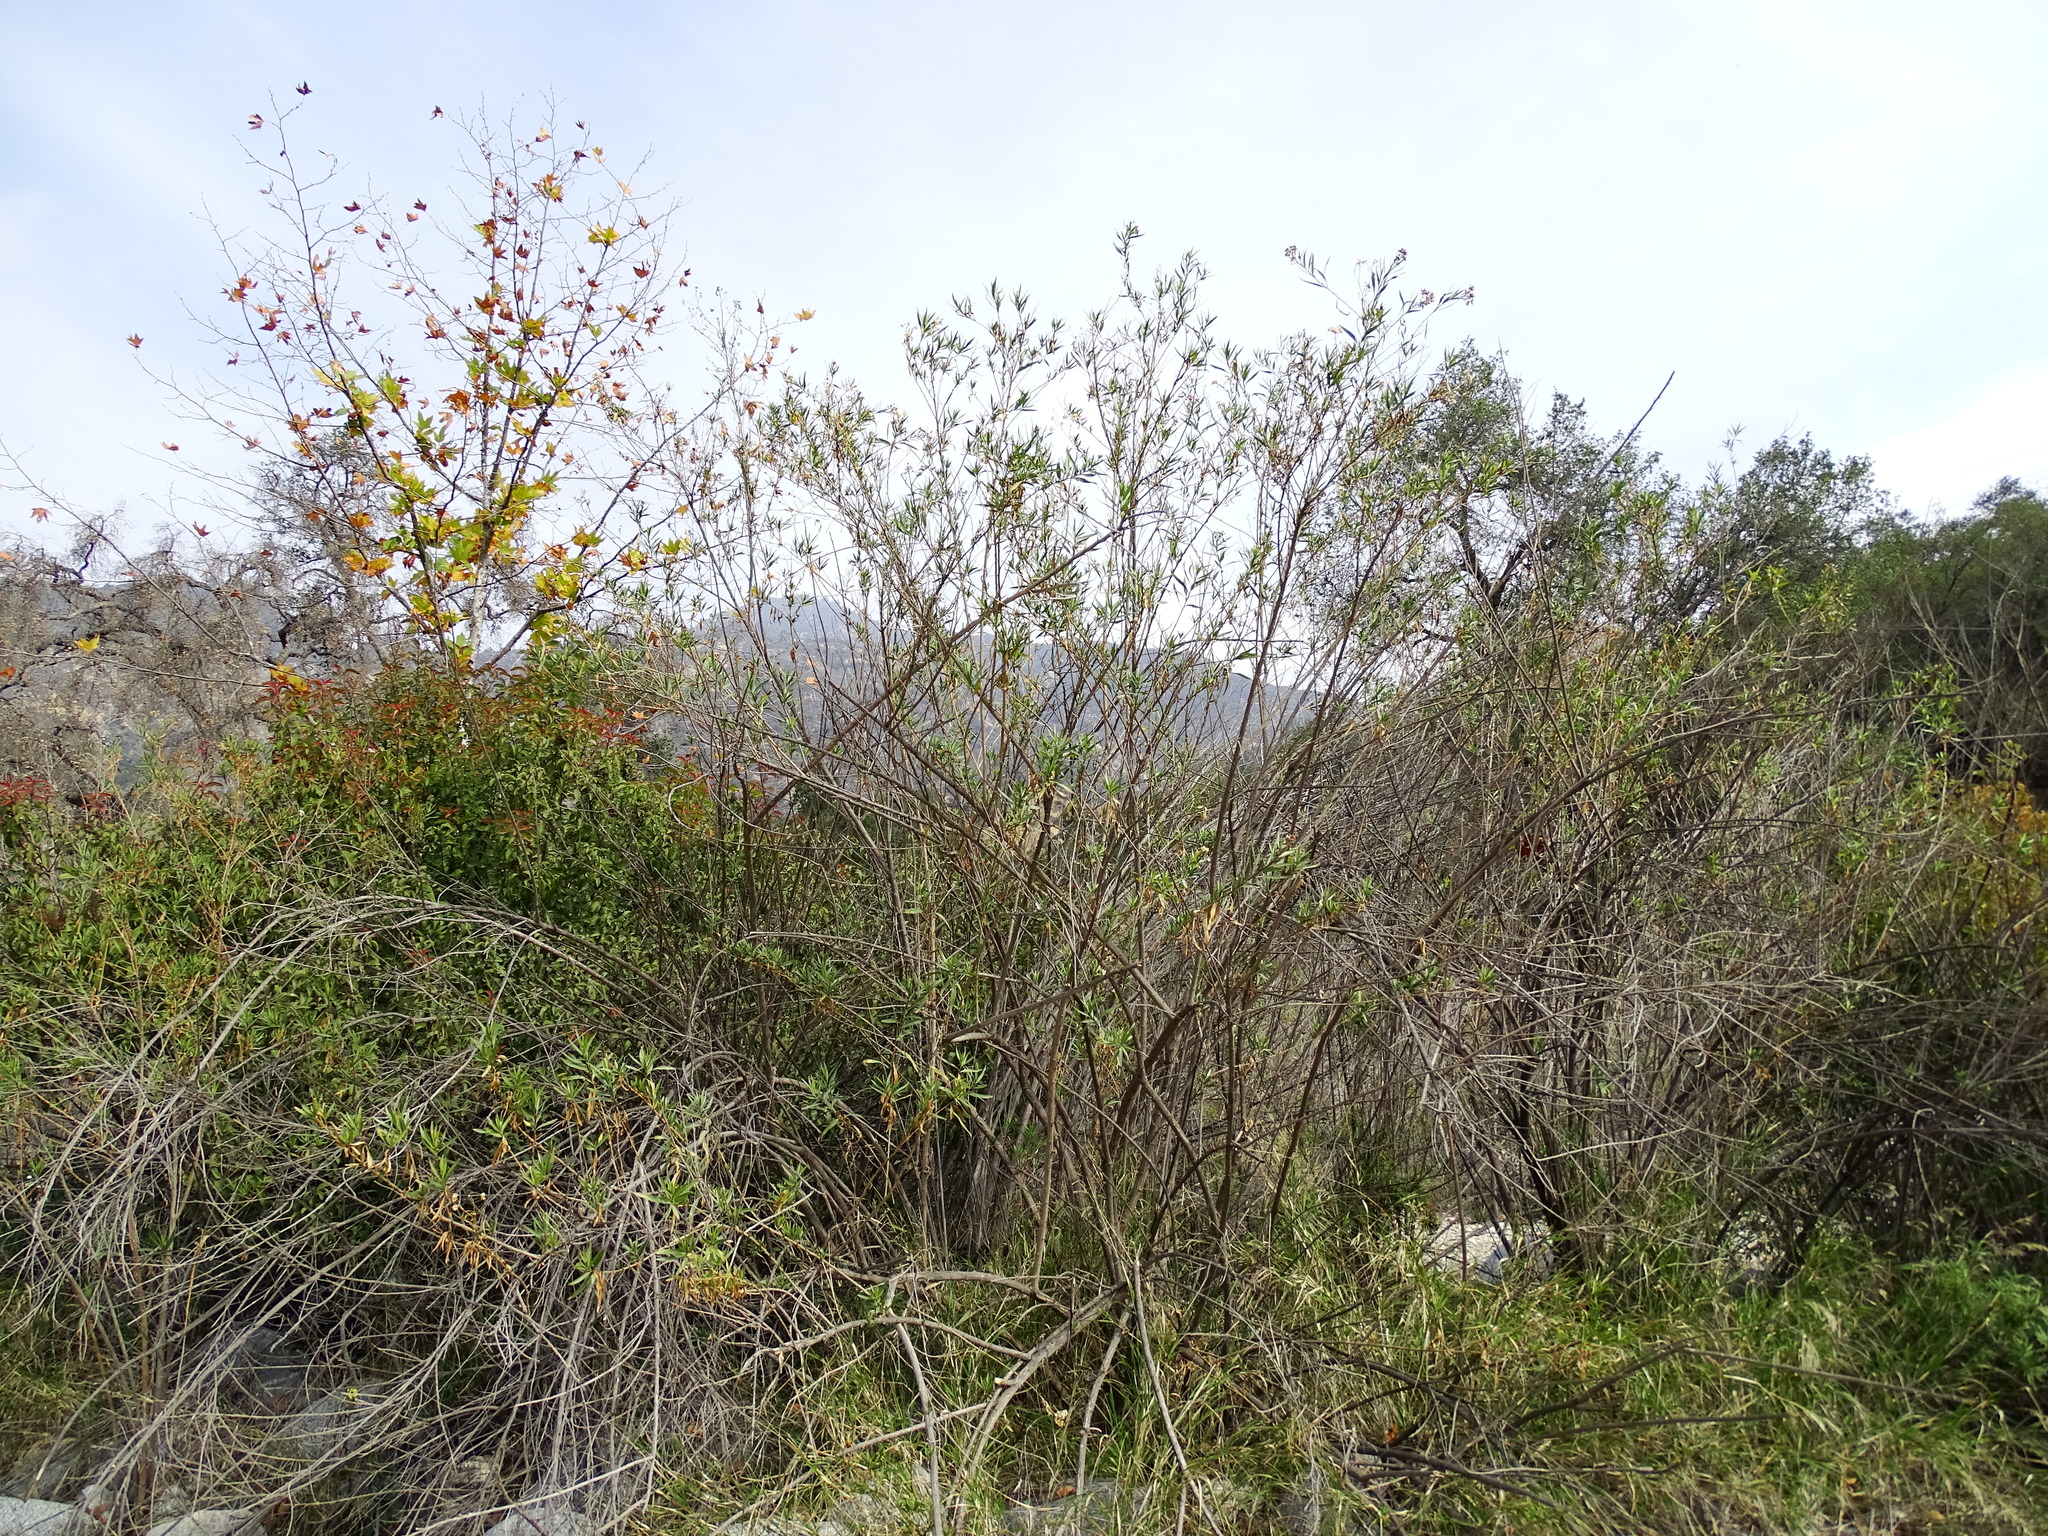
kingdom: Plantae
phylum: Tracheophyta
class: Magnoliopsida
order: Asterales
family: Asteraceae
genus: Baccharis
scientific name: Baccharis salicifolia
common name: Sticky baccharis
